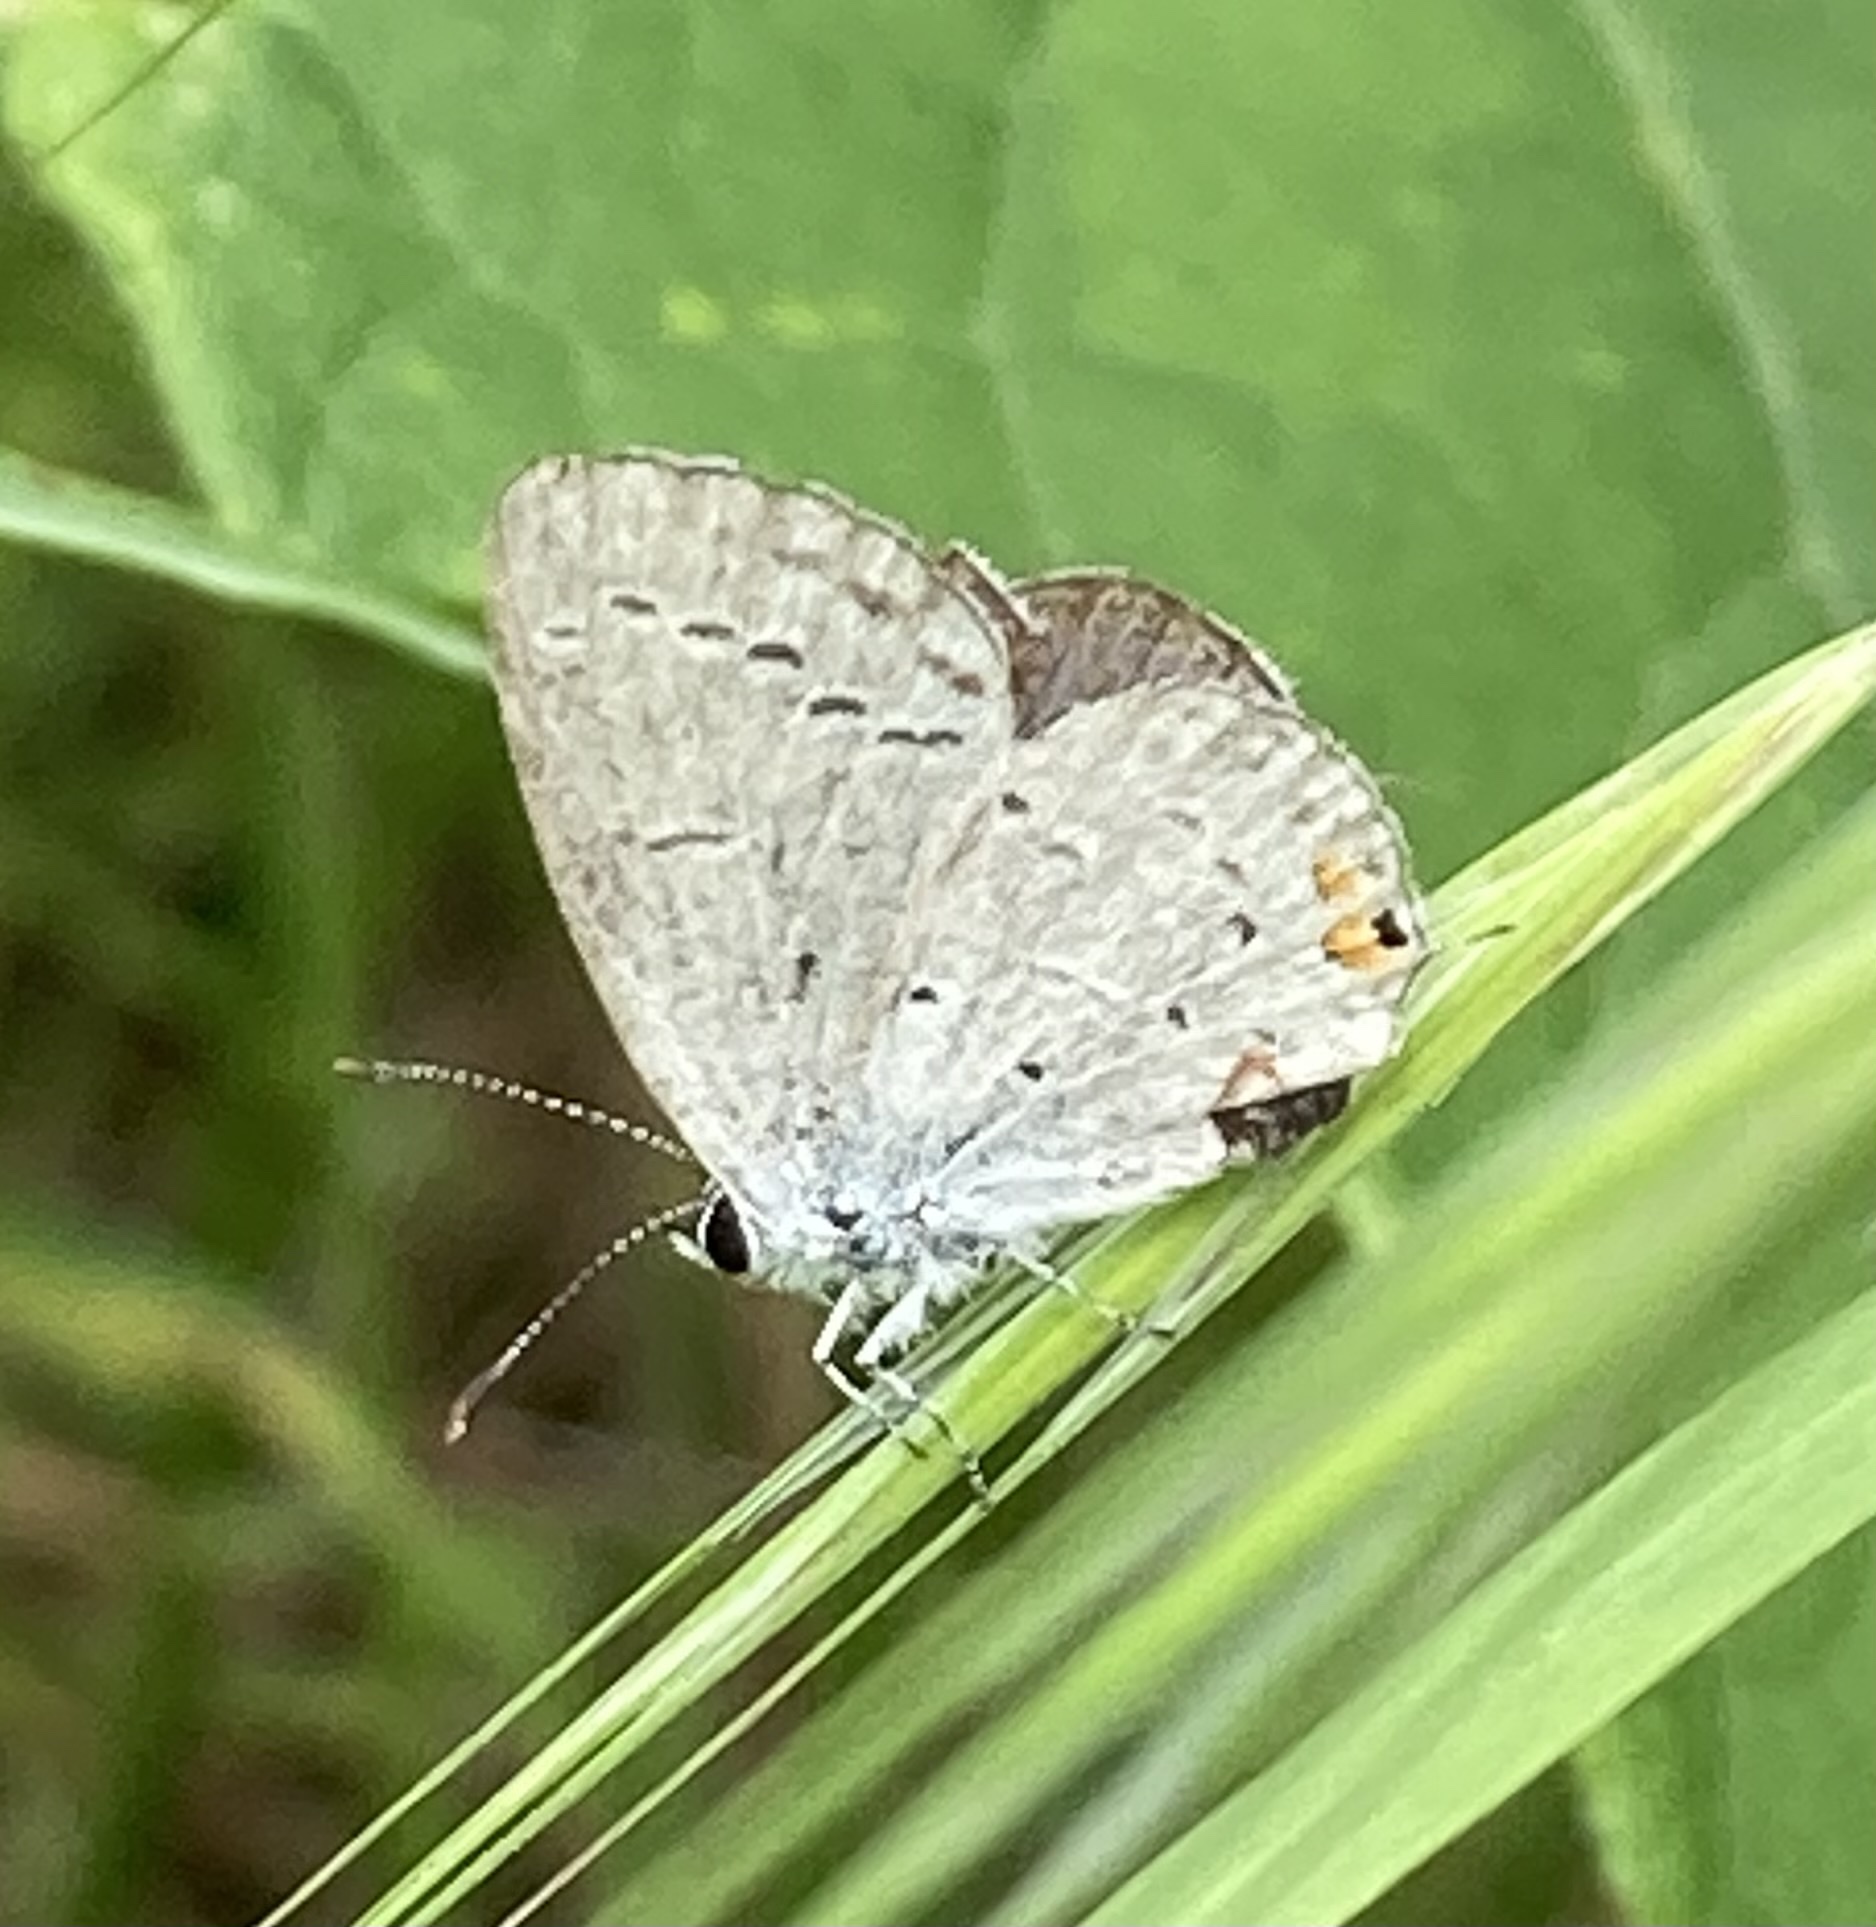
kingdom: Animalia
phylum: Arthropoda
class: Insecta
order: Lepidoptera
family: Lycaenidae
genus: Elkalyce
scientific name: Elkalyce comyntas
